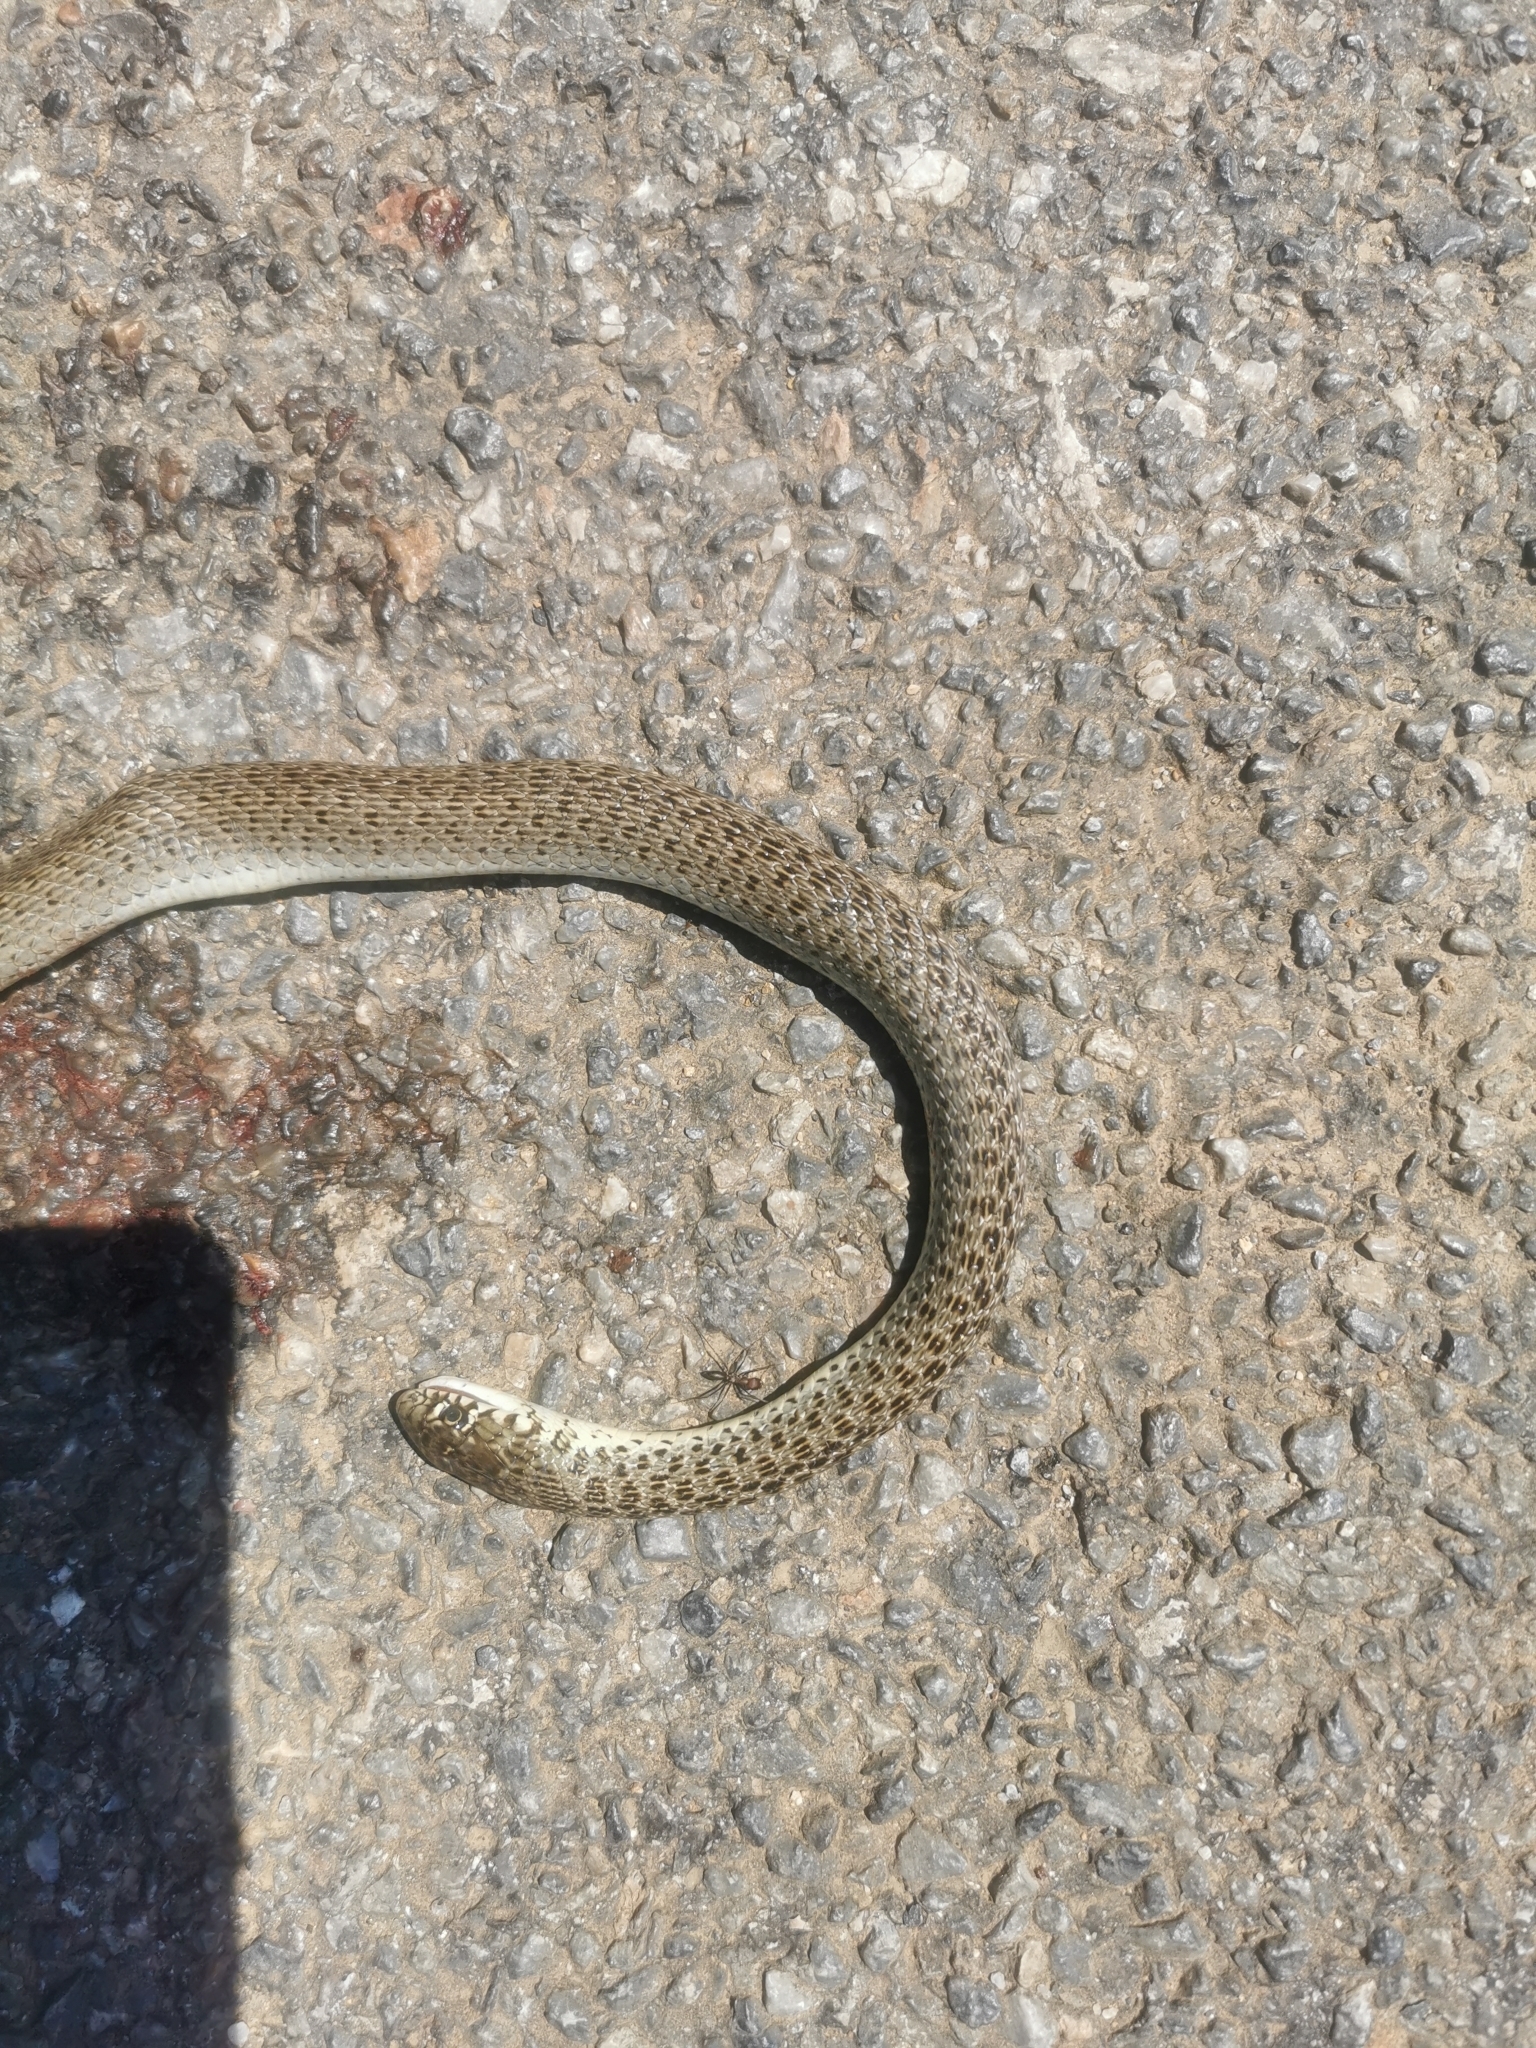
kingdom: Animalia
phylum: Chordata
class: Squamata
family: Colubridae
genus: Hierophis
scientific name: Hierophis gemonensis
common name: Balkan whip snake
